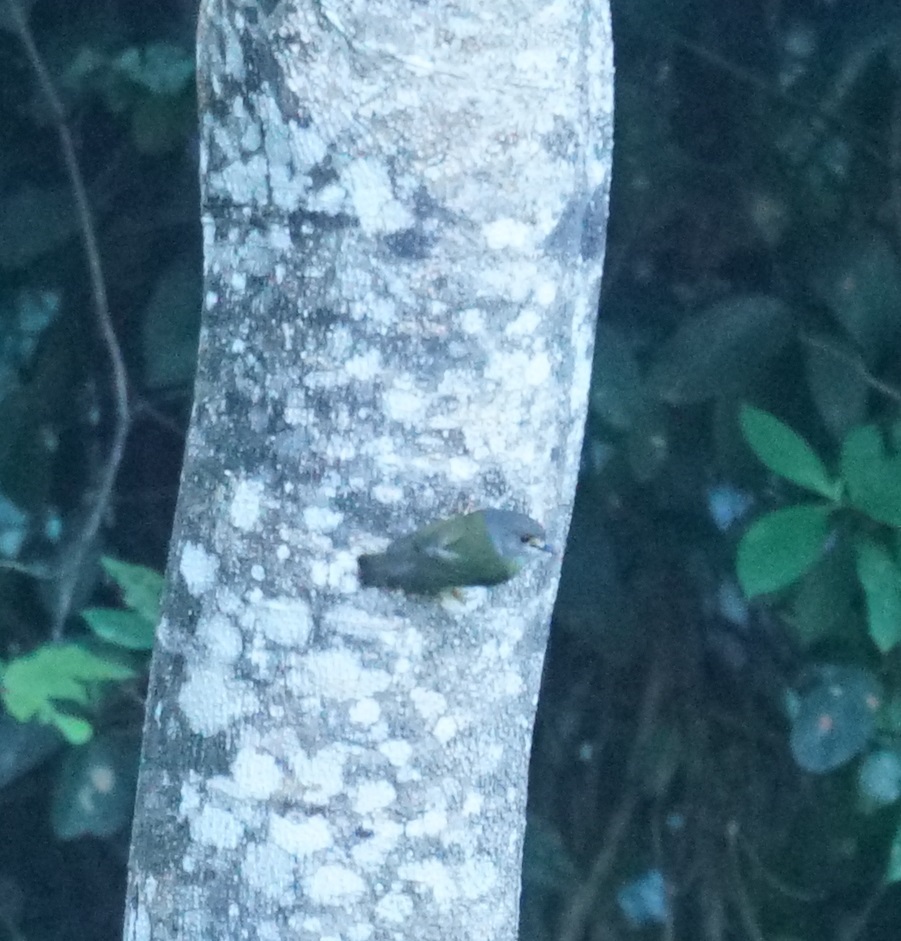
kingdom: Animalia
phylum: Chordata
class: Aves
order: Passeriformes
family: Petroicidae
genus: Eopsaltria
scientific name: Eopsaltria
